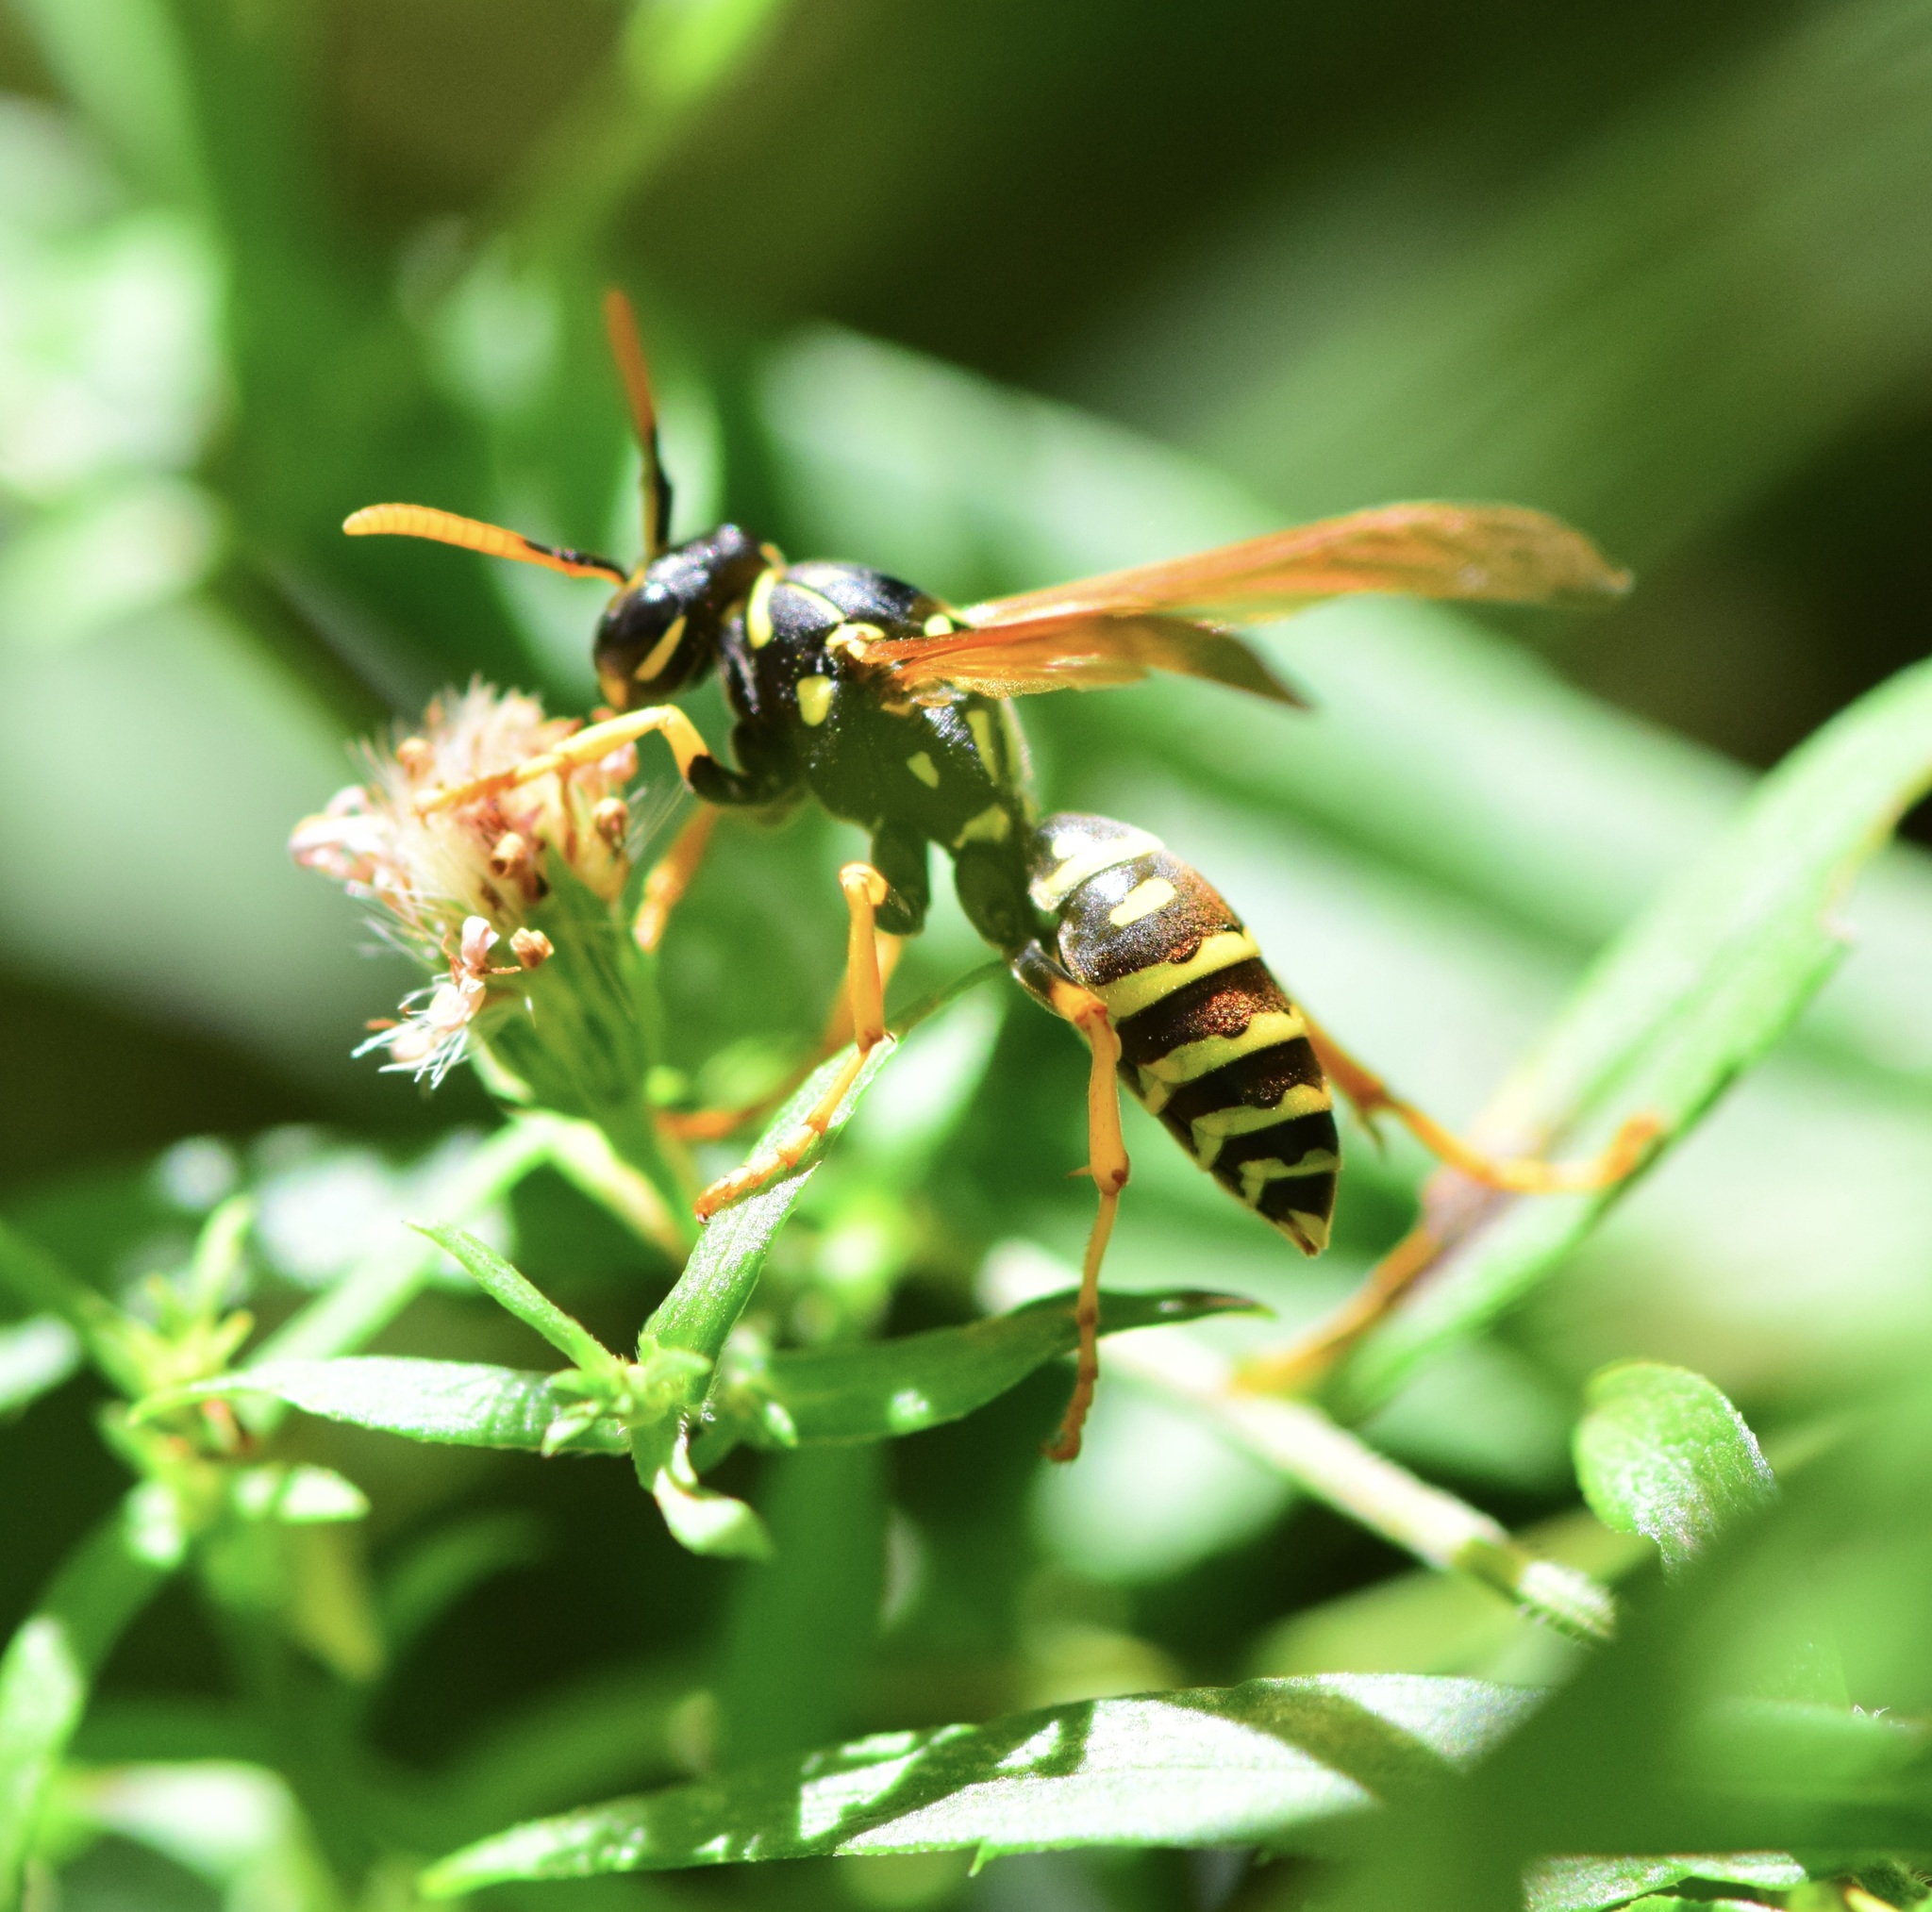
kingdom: Animalia
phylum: Arthropoda
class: Insecta
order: Hymenoptera
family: Eumenidae
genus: Polistes
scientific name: Polistes dominula
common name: Paper wasp
